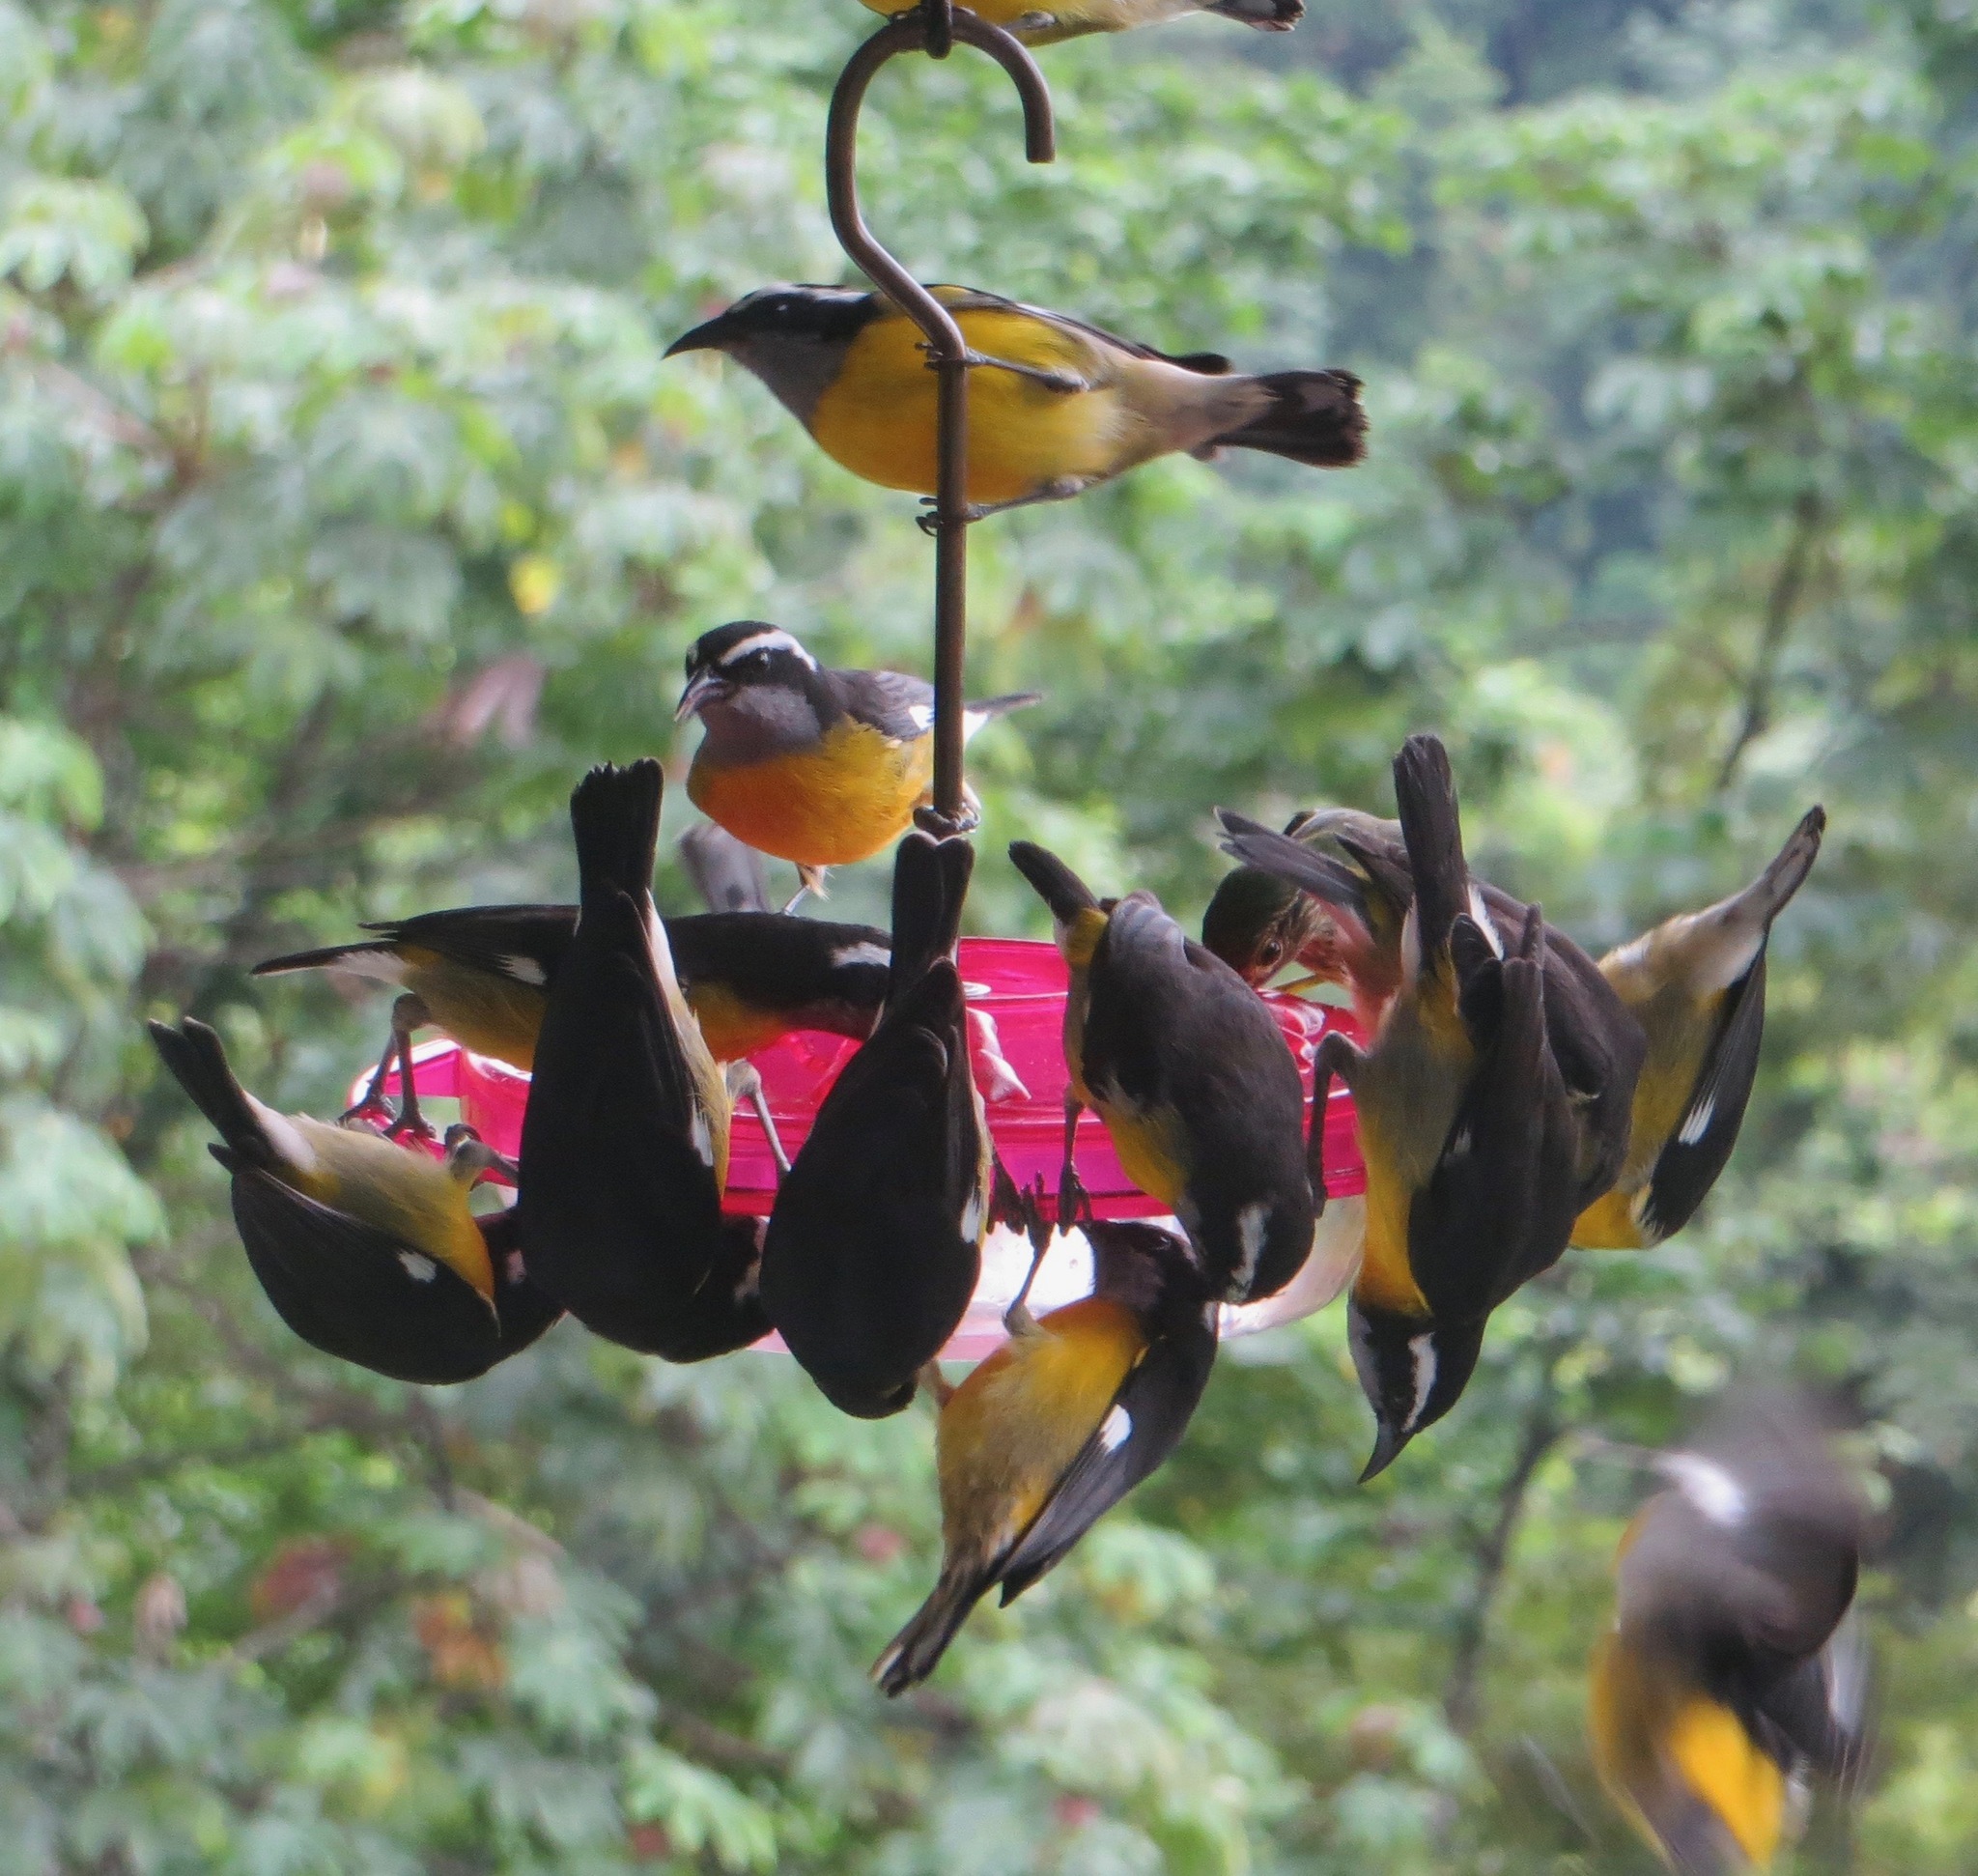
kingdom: Animalia
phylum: Chordata
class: Aves
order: Passeriformes
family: Thraupidae
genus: Coereba
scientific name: Coereba flaveola
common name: Bananaquit
